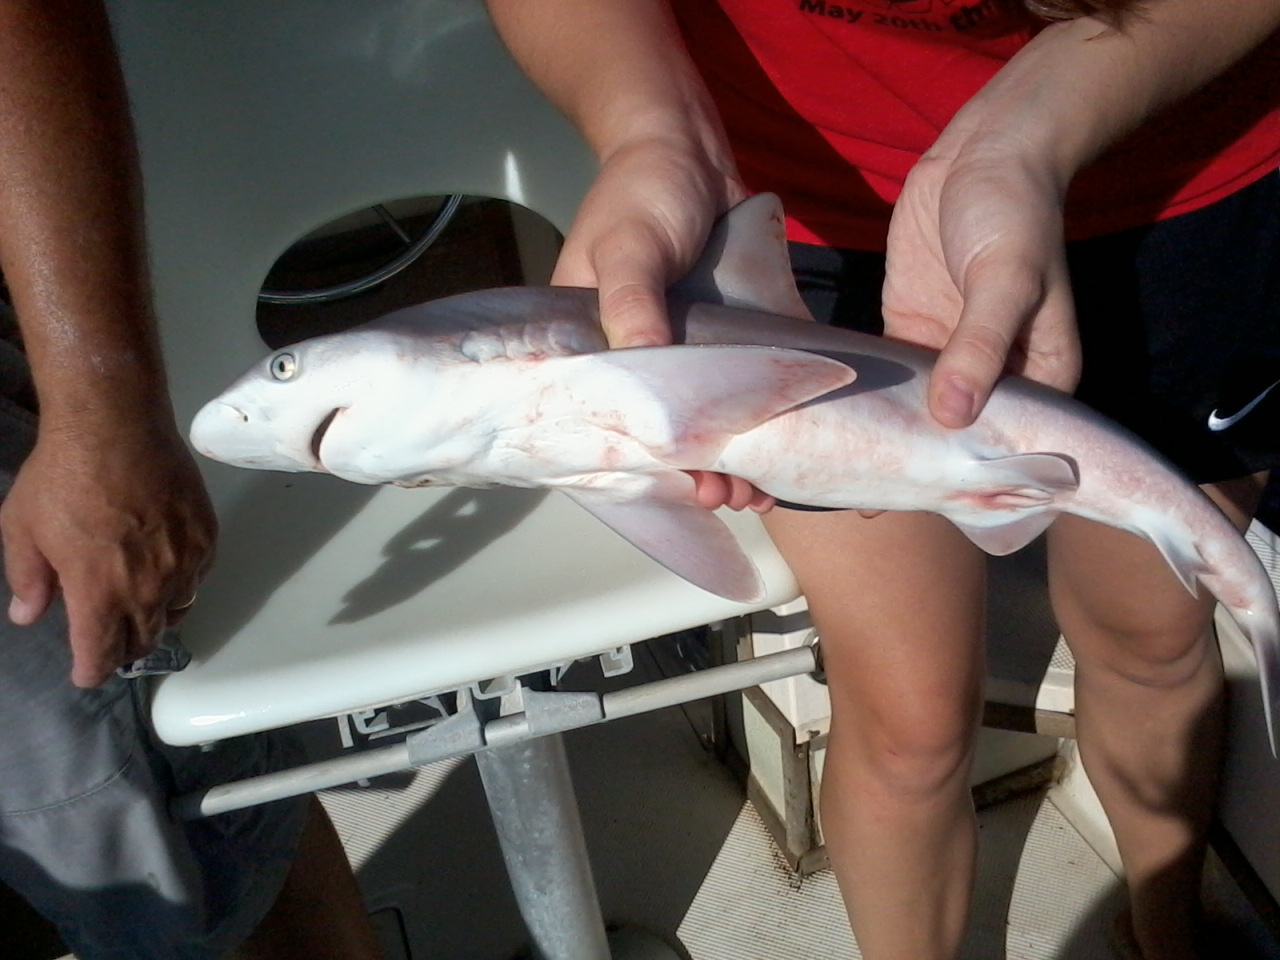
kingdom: Animalia
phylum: Chordata
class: Elasmobranchii
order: Carcharhiniformes
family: Carcharhinidae
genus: Carcharhinus
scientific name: Carcharhinus plumbeus
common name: Sandbar shark
